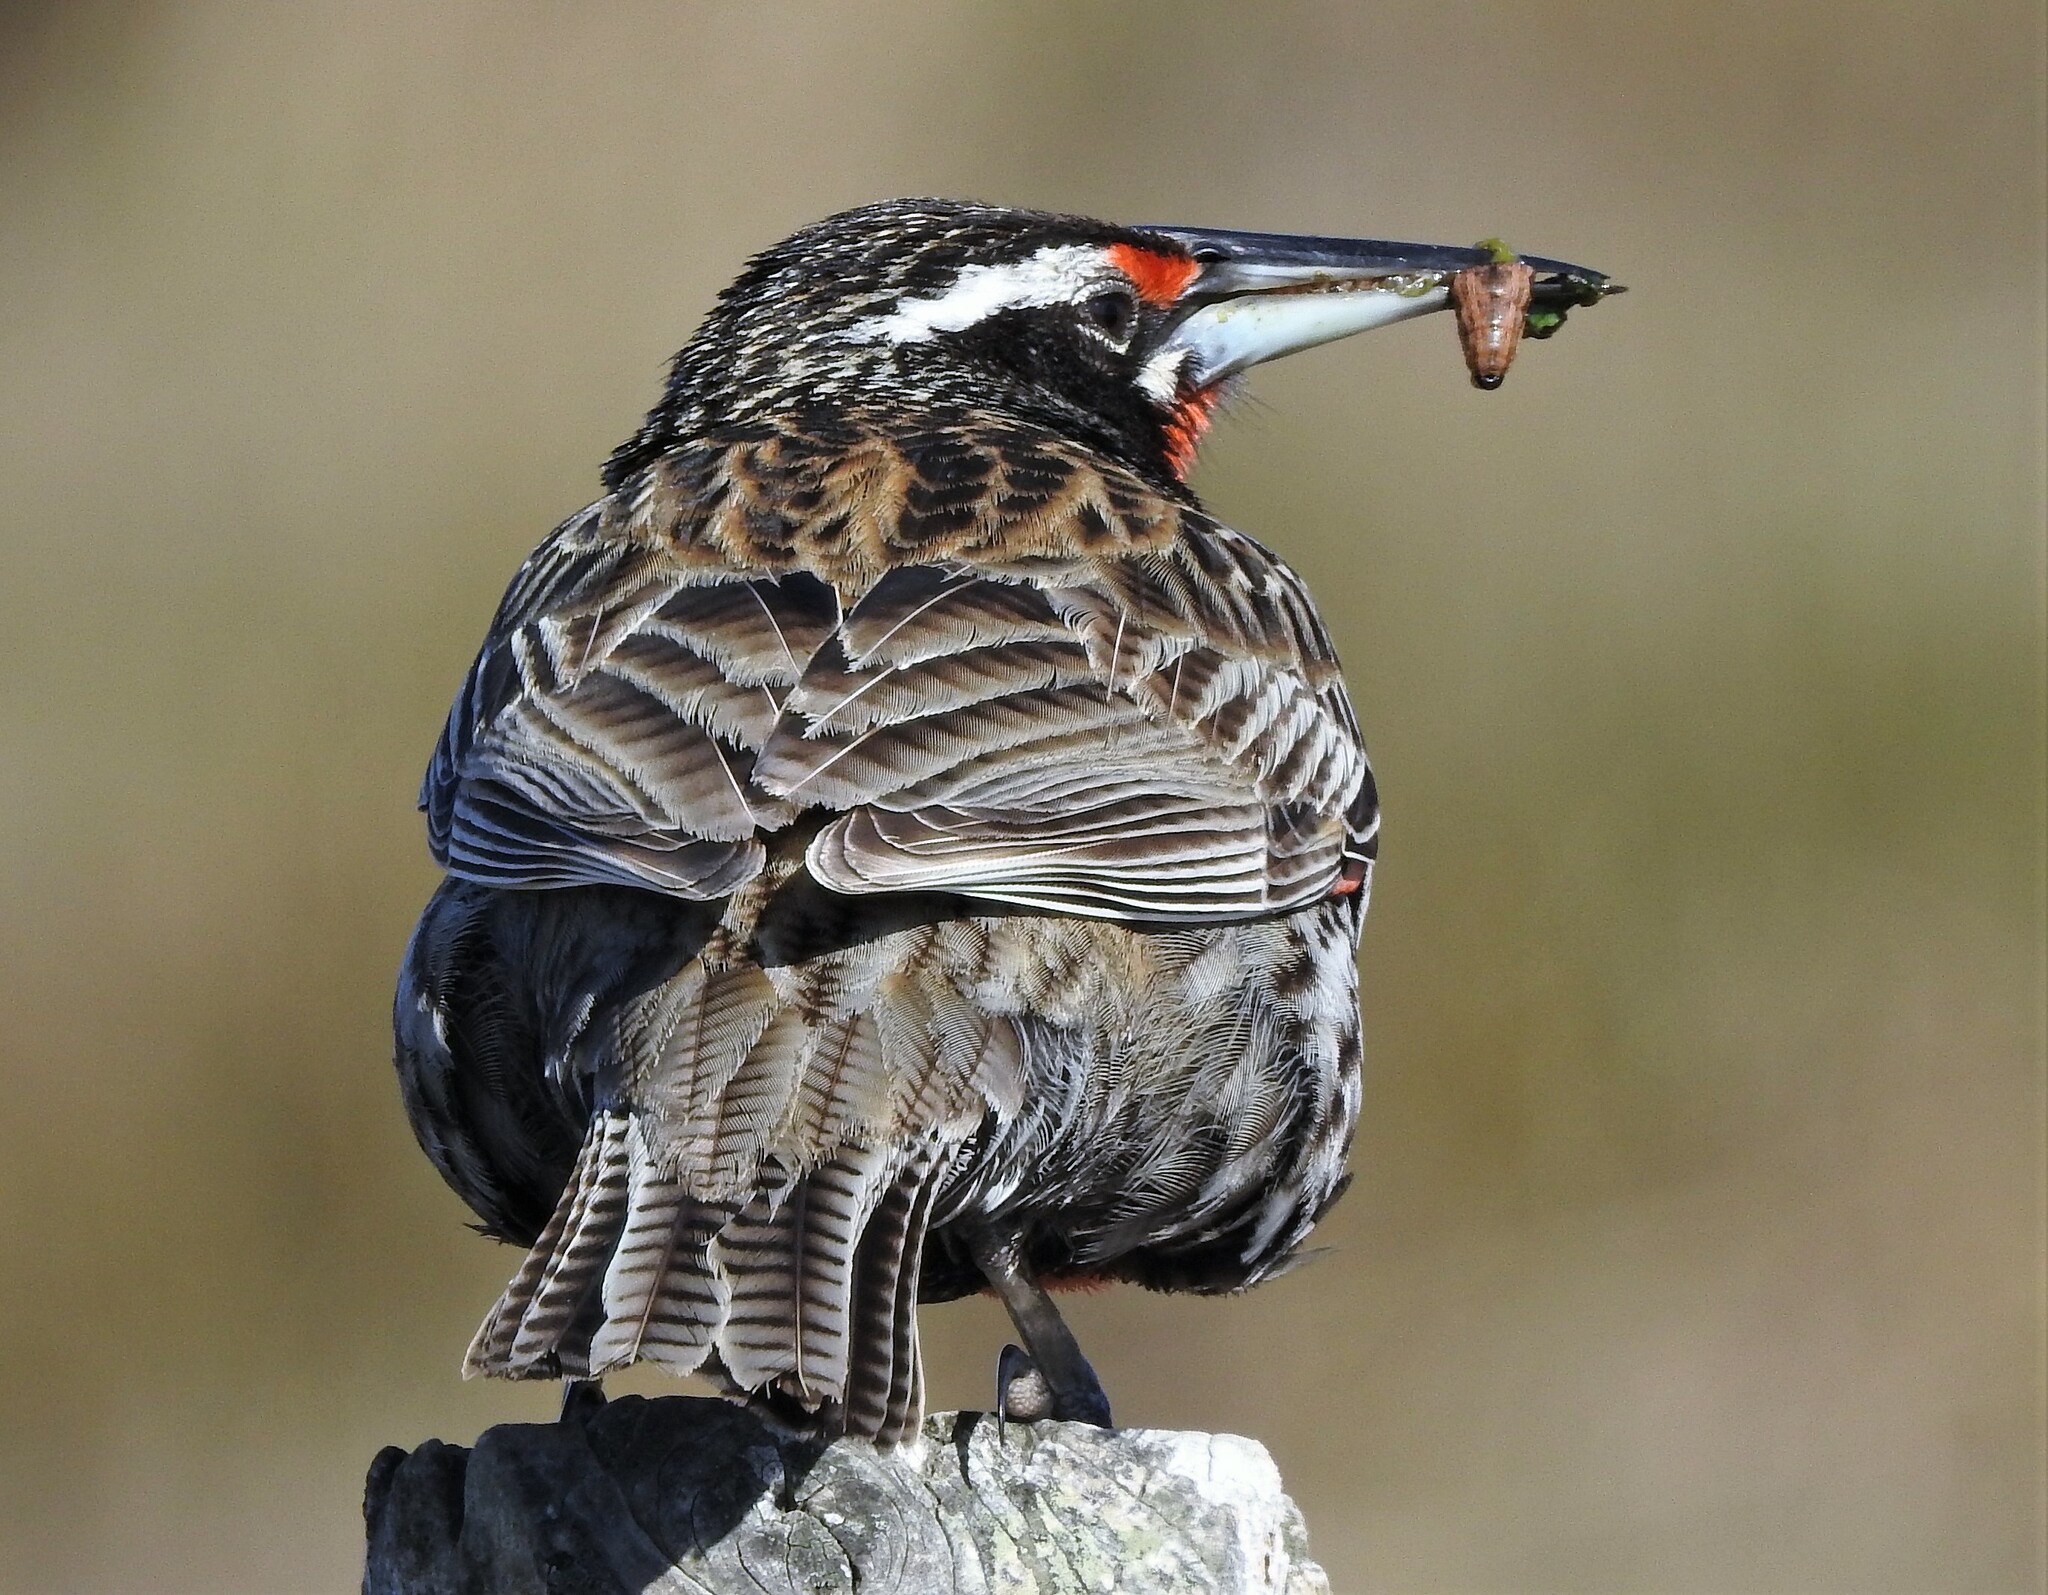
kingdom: Animalia
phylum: Chordata
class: Aves
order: Passeriformes
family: Icteridae
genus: Sturnella
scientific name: Sturnella loyca
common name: Long-tailed meadowlark
